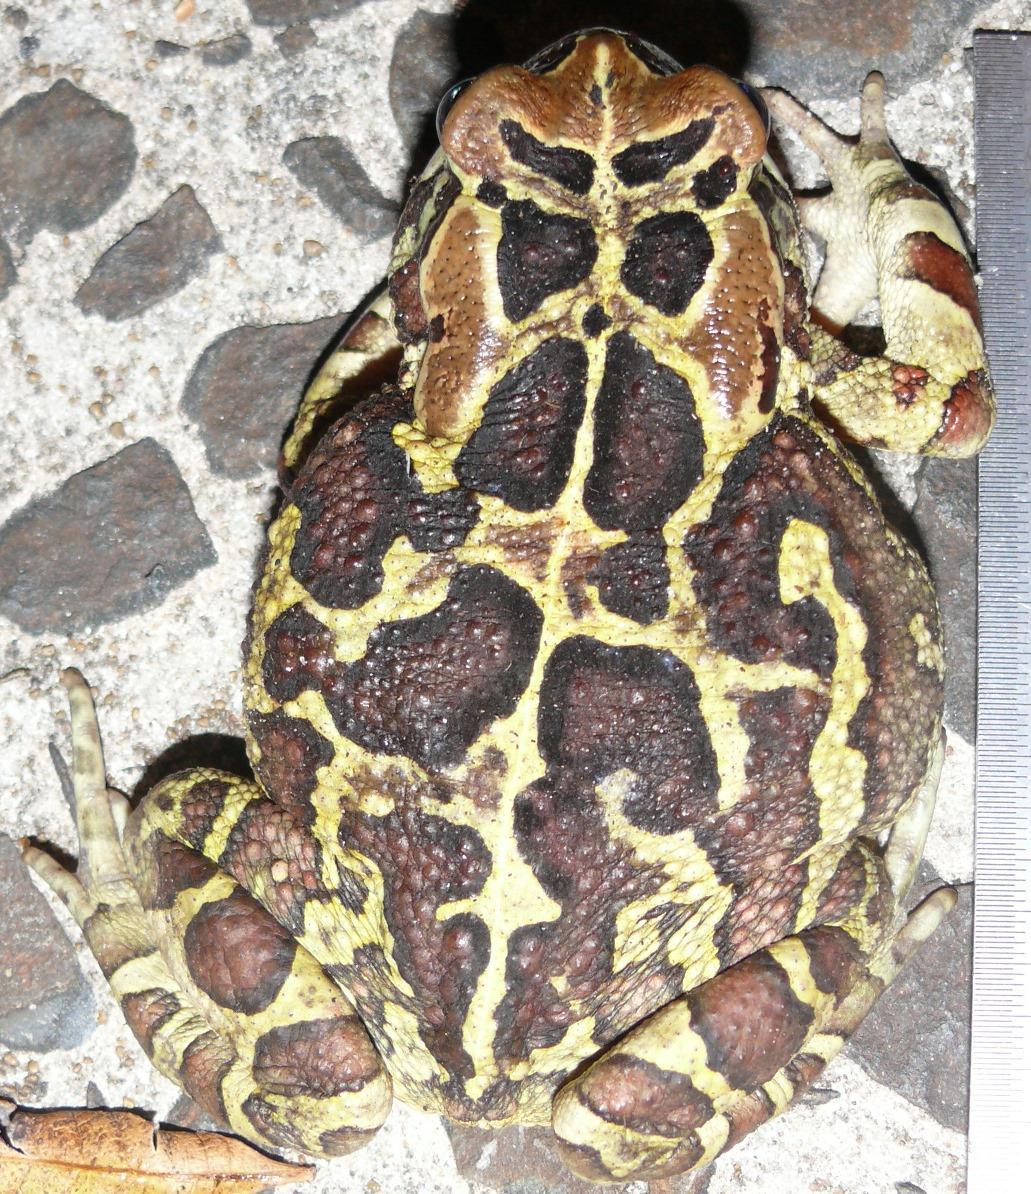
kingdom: Animalia
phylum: Chordata
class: Amphibia
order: Anura
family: Bufonidae
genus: Sclerophrys
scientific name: Sclerophrys pantherina
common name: Panther toad
